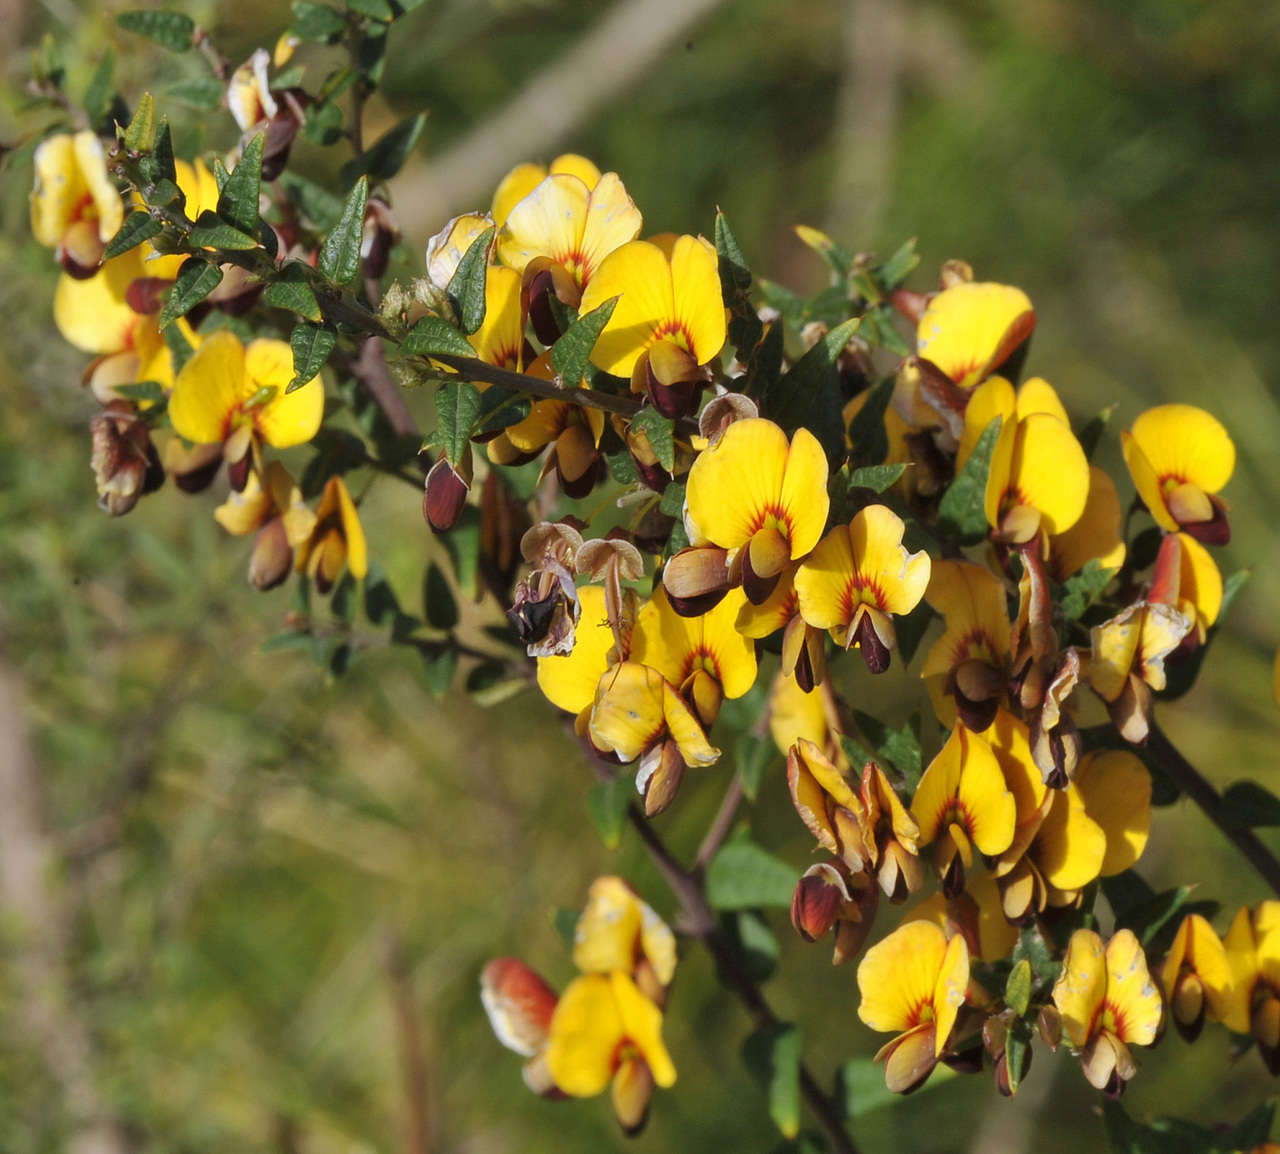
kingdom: Plantae
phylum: Tracheophyta
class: Magnoliopsida
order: Fabales
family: Fabaceae
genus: Bossiaea
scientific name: Bossiaea cinerea
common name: Showy bossiaea
